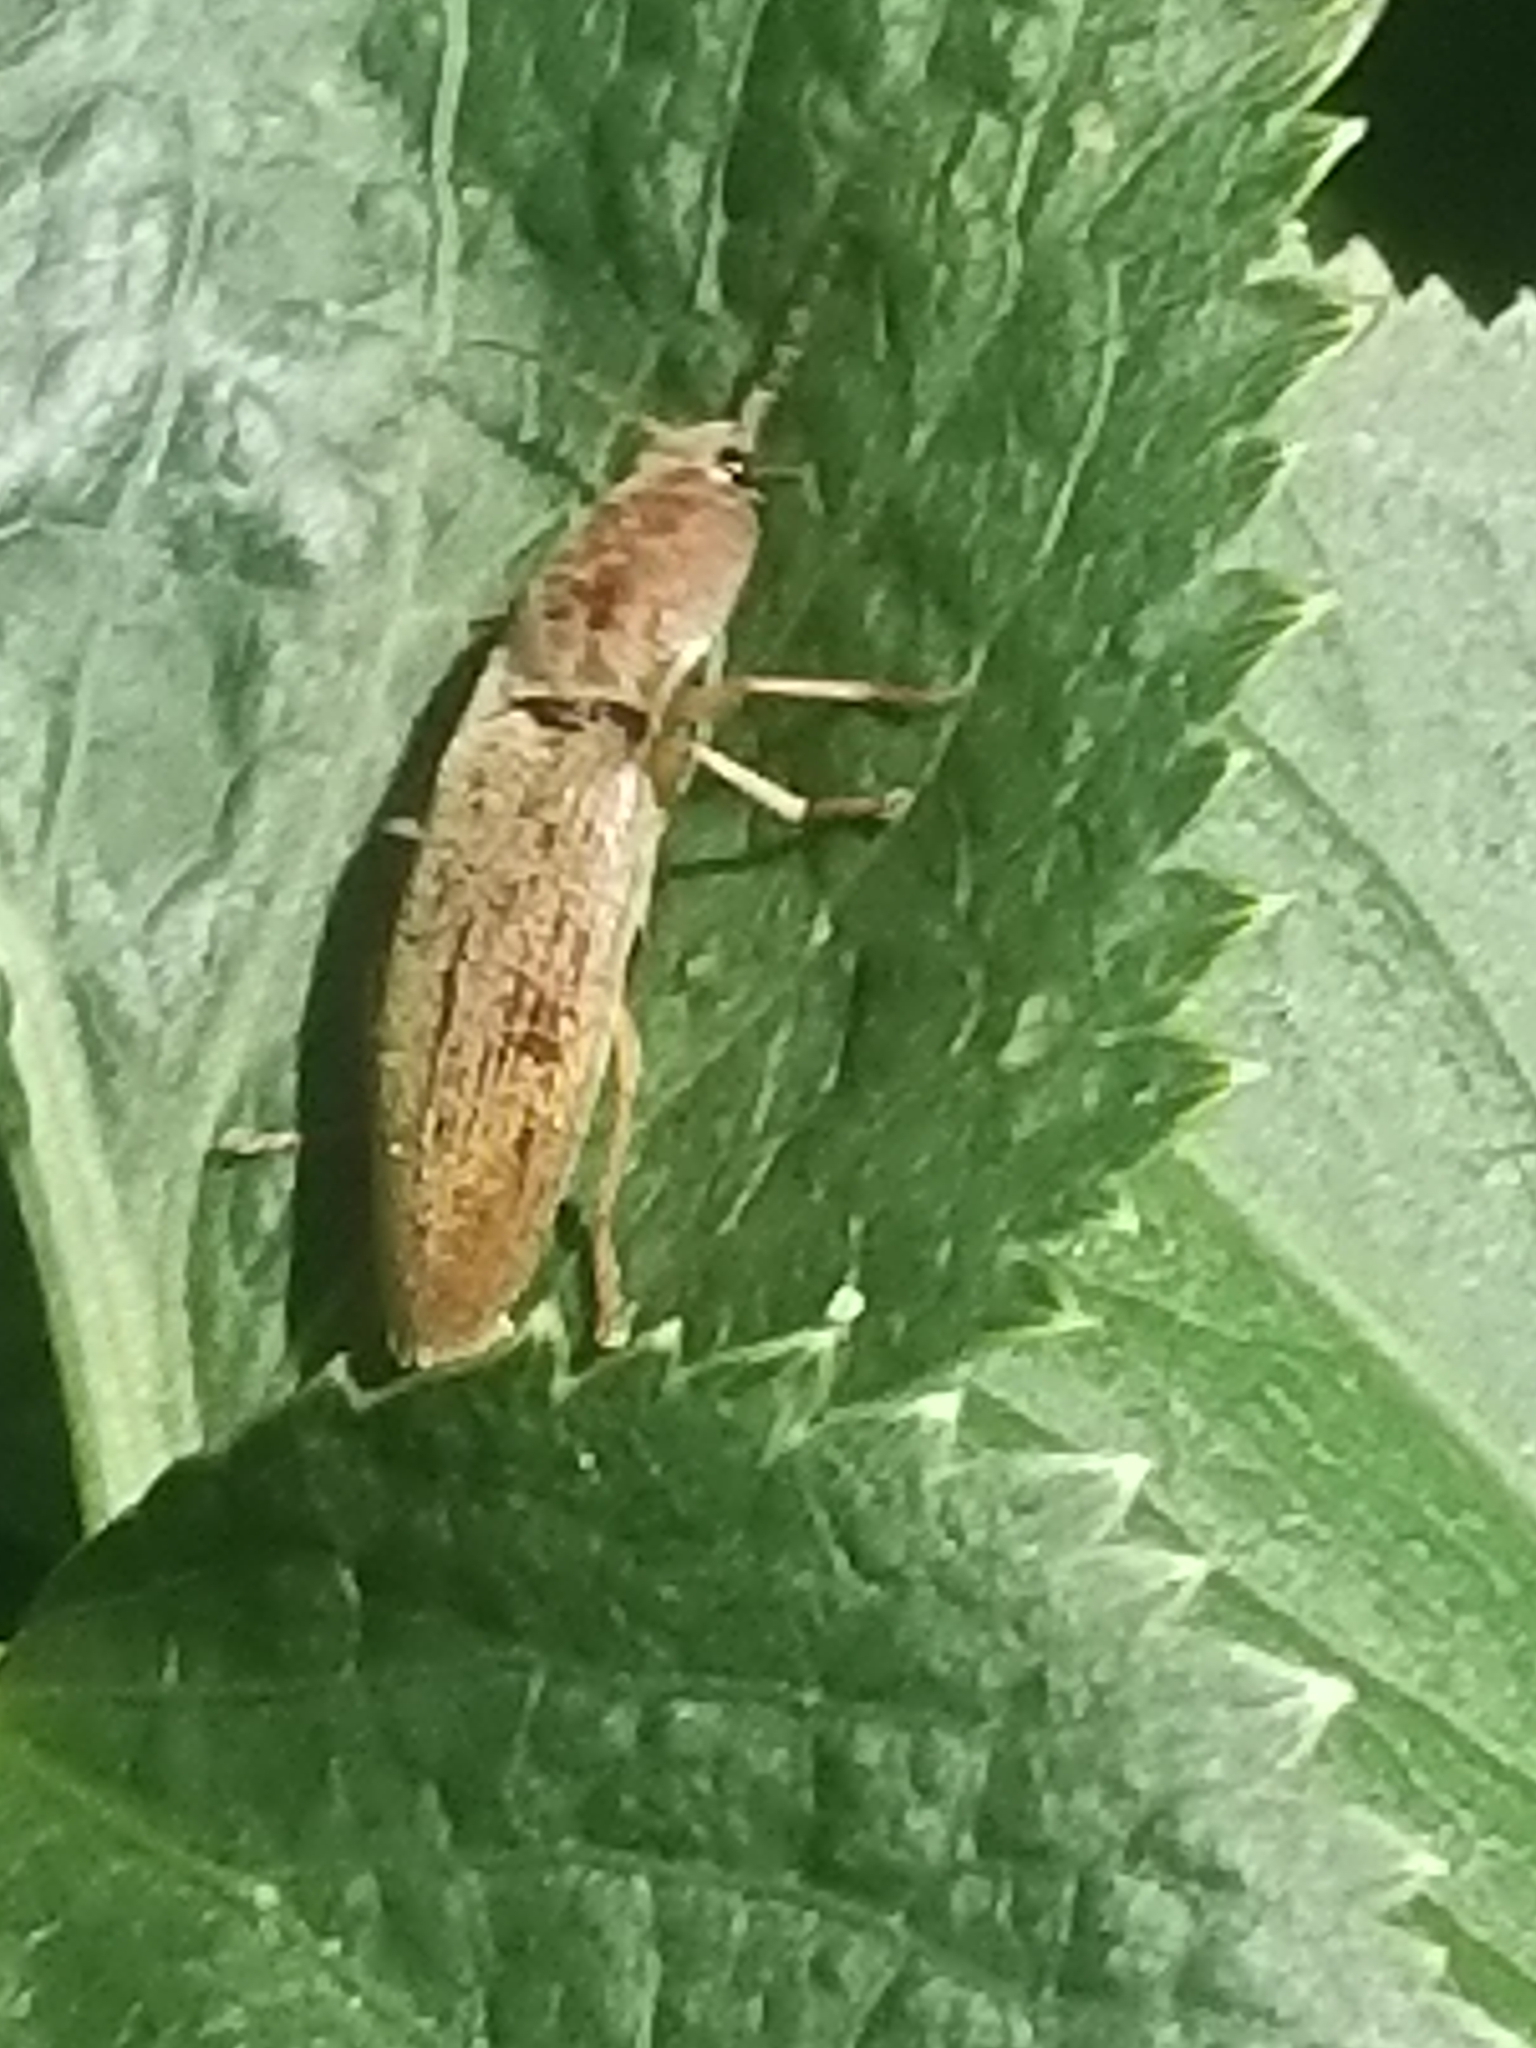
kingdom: Animalia
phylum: Arthropoda
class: Insecta
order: Coleoptera
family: Elateridae
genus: Monocrepidius
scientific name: Monocrepidius lividus
